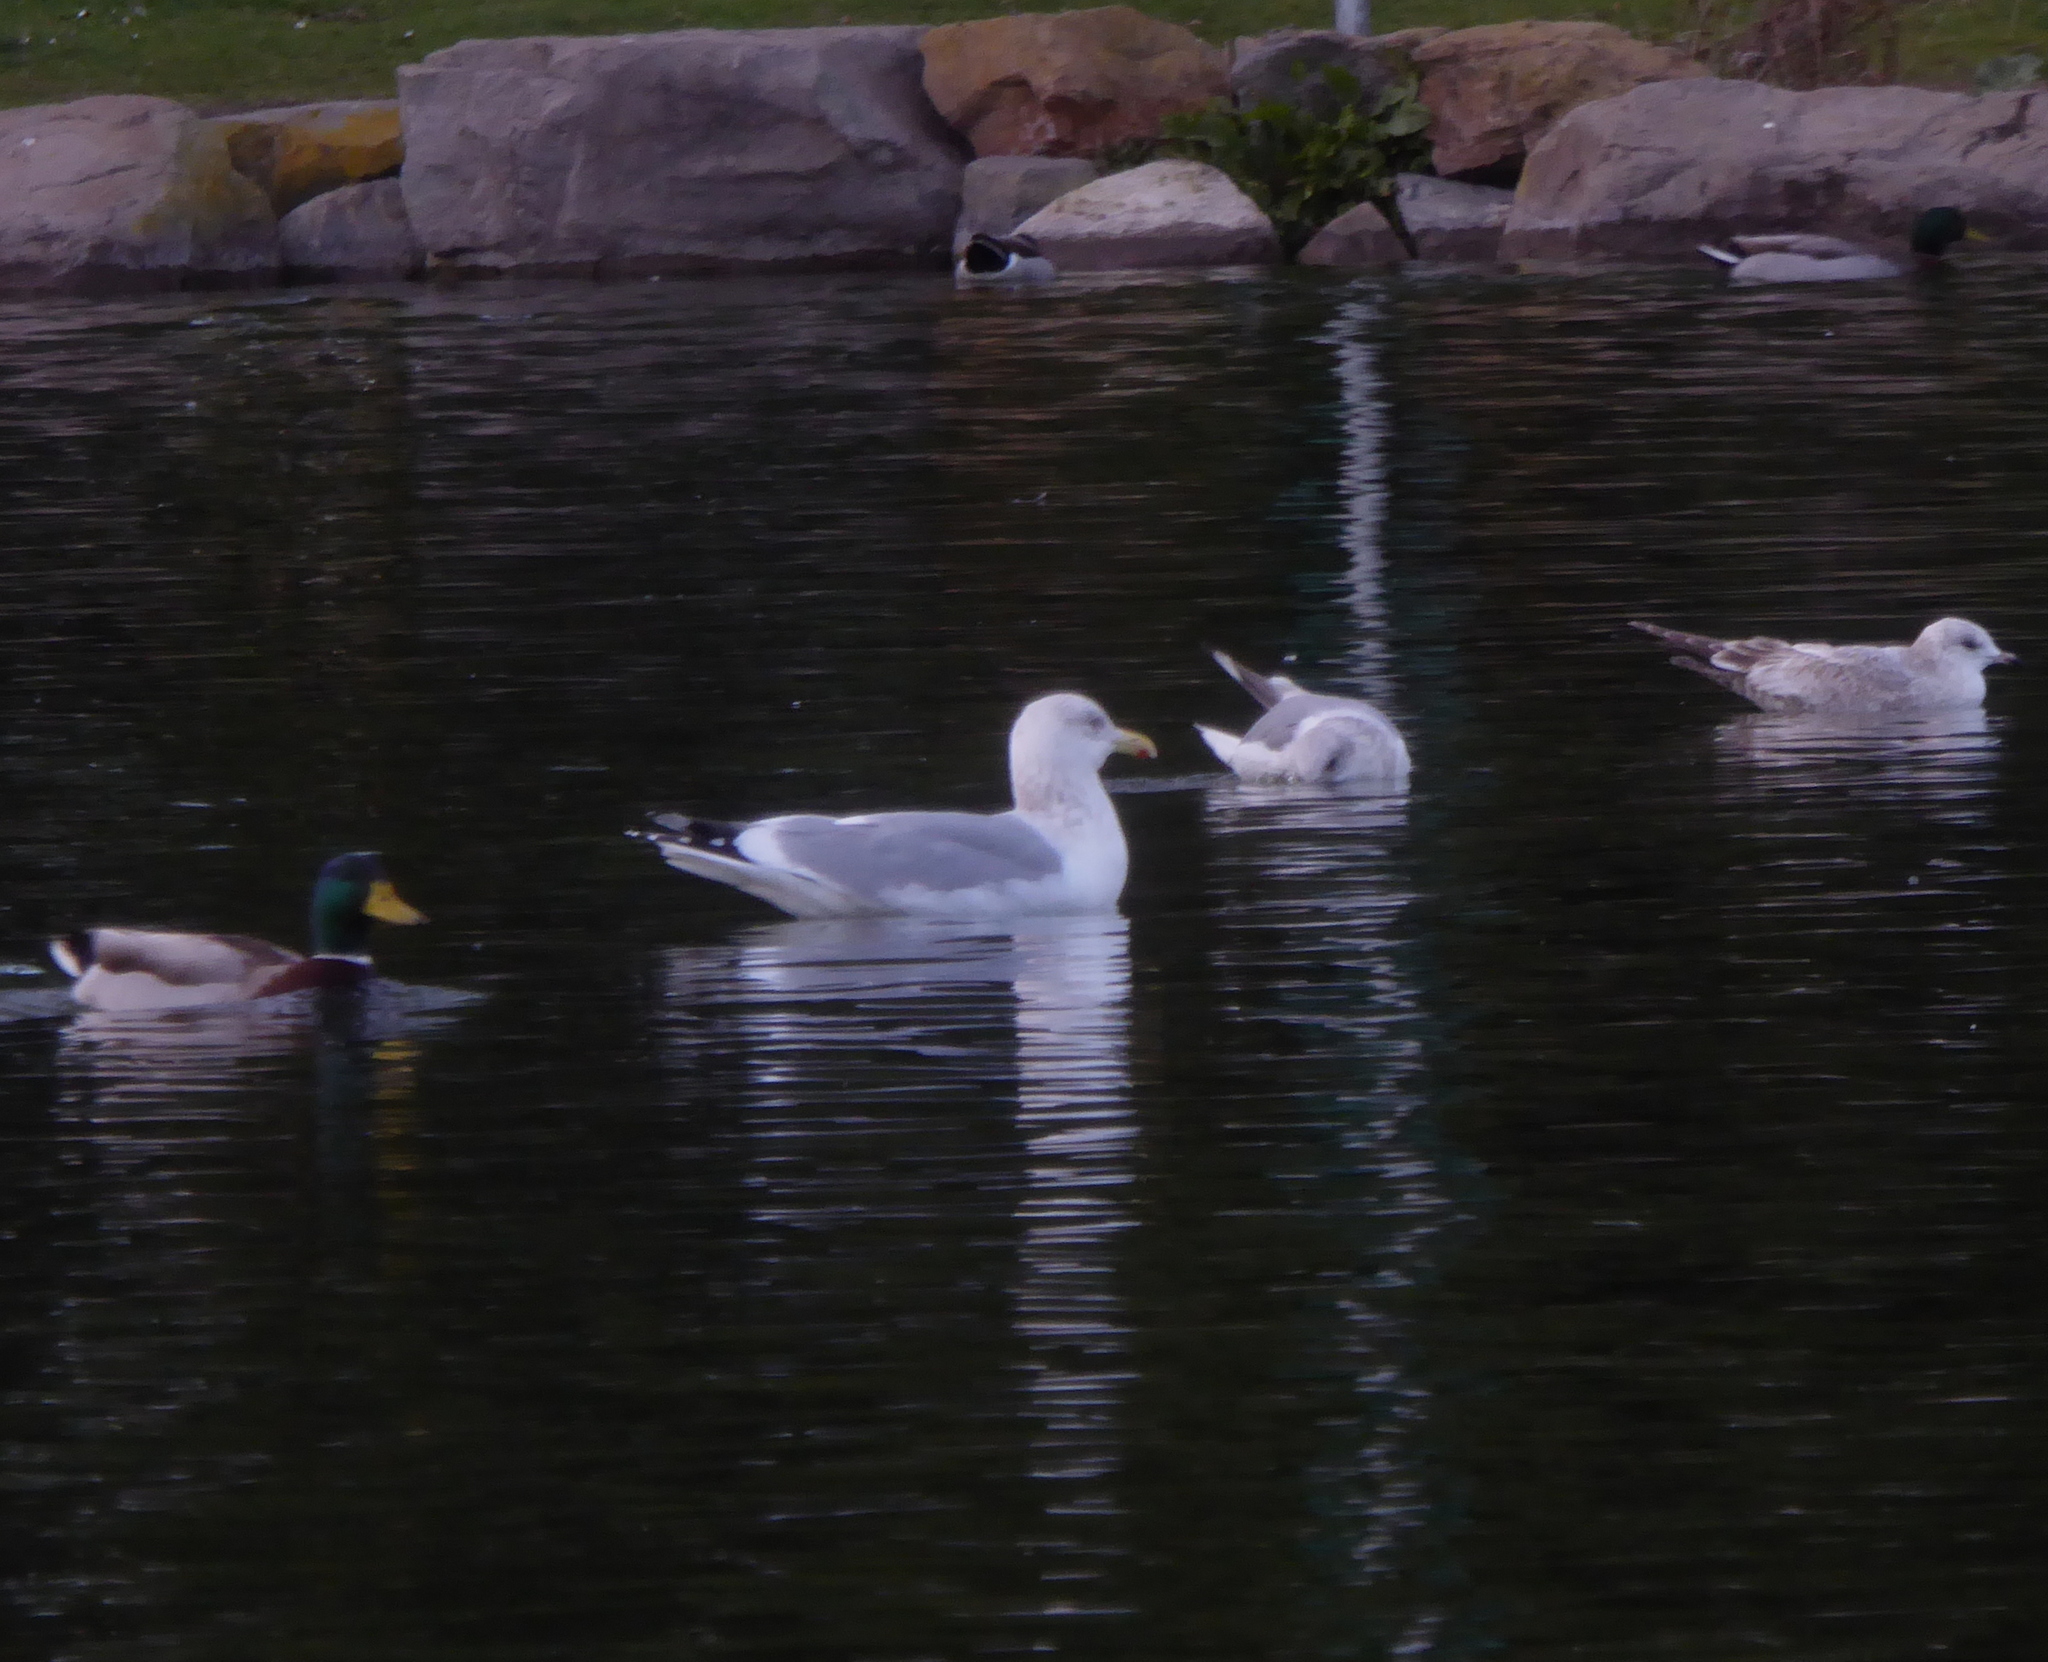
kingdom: Animalia
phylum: Chordata
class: Aves
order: Charadriiformes
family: Laridae
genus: Larus
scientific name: Larus argentatus
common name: Herring gull
